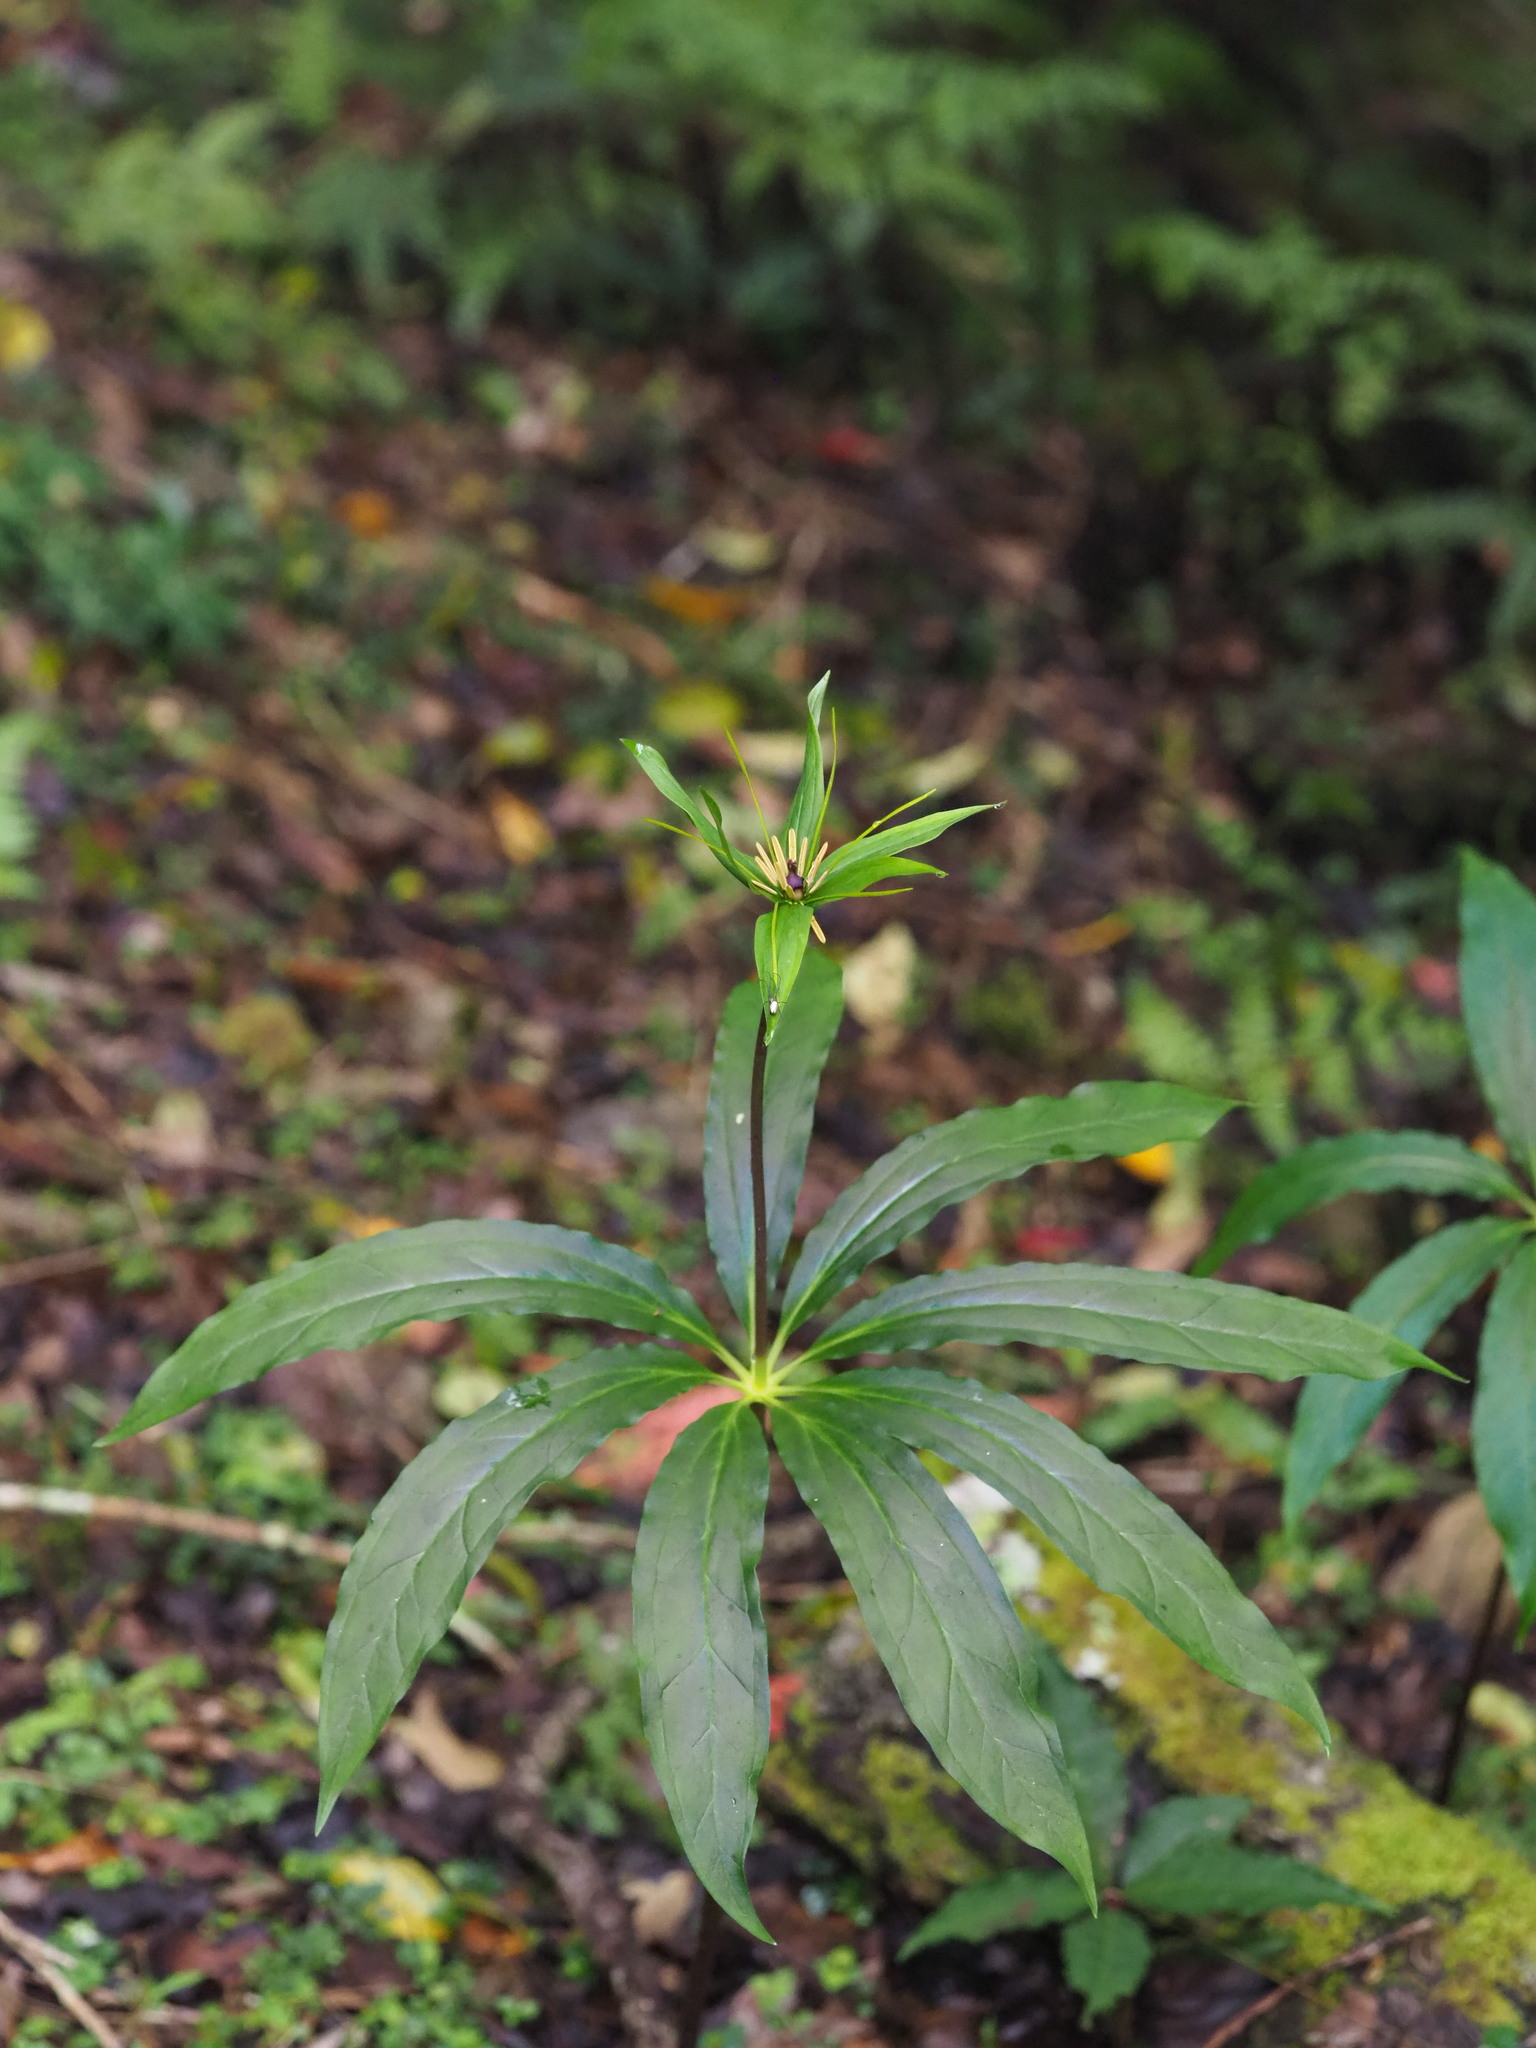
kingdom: Plantae
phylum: Tracheophyta
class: Liliopsida
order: Liliales
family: Melanthiaceae
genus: Paris
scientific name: Paris polyphylla
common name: Love apple
